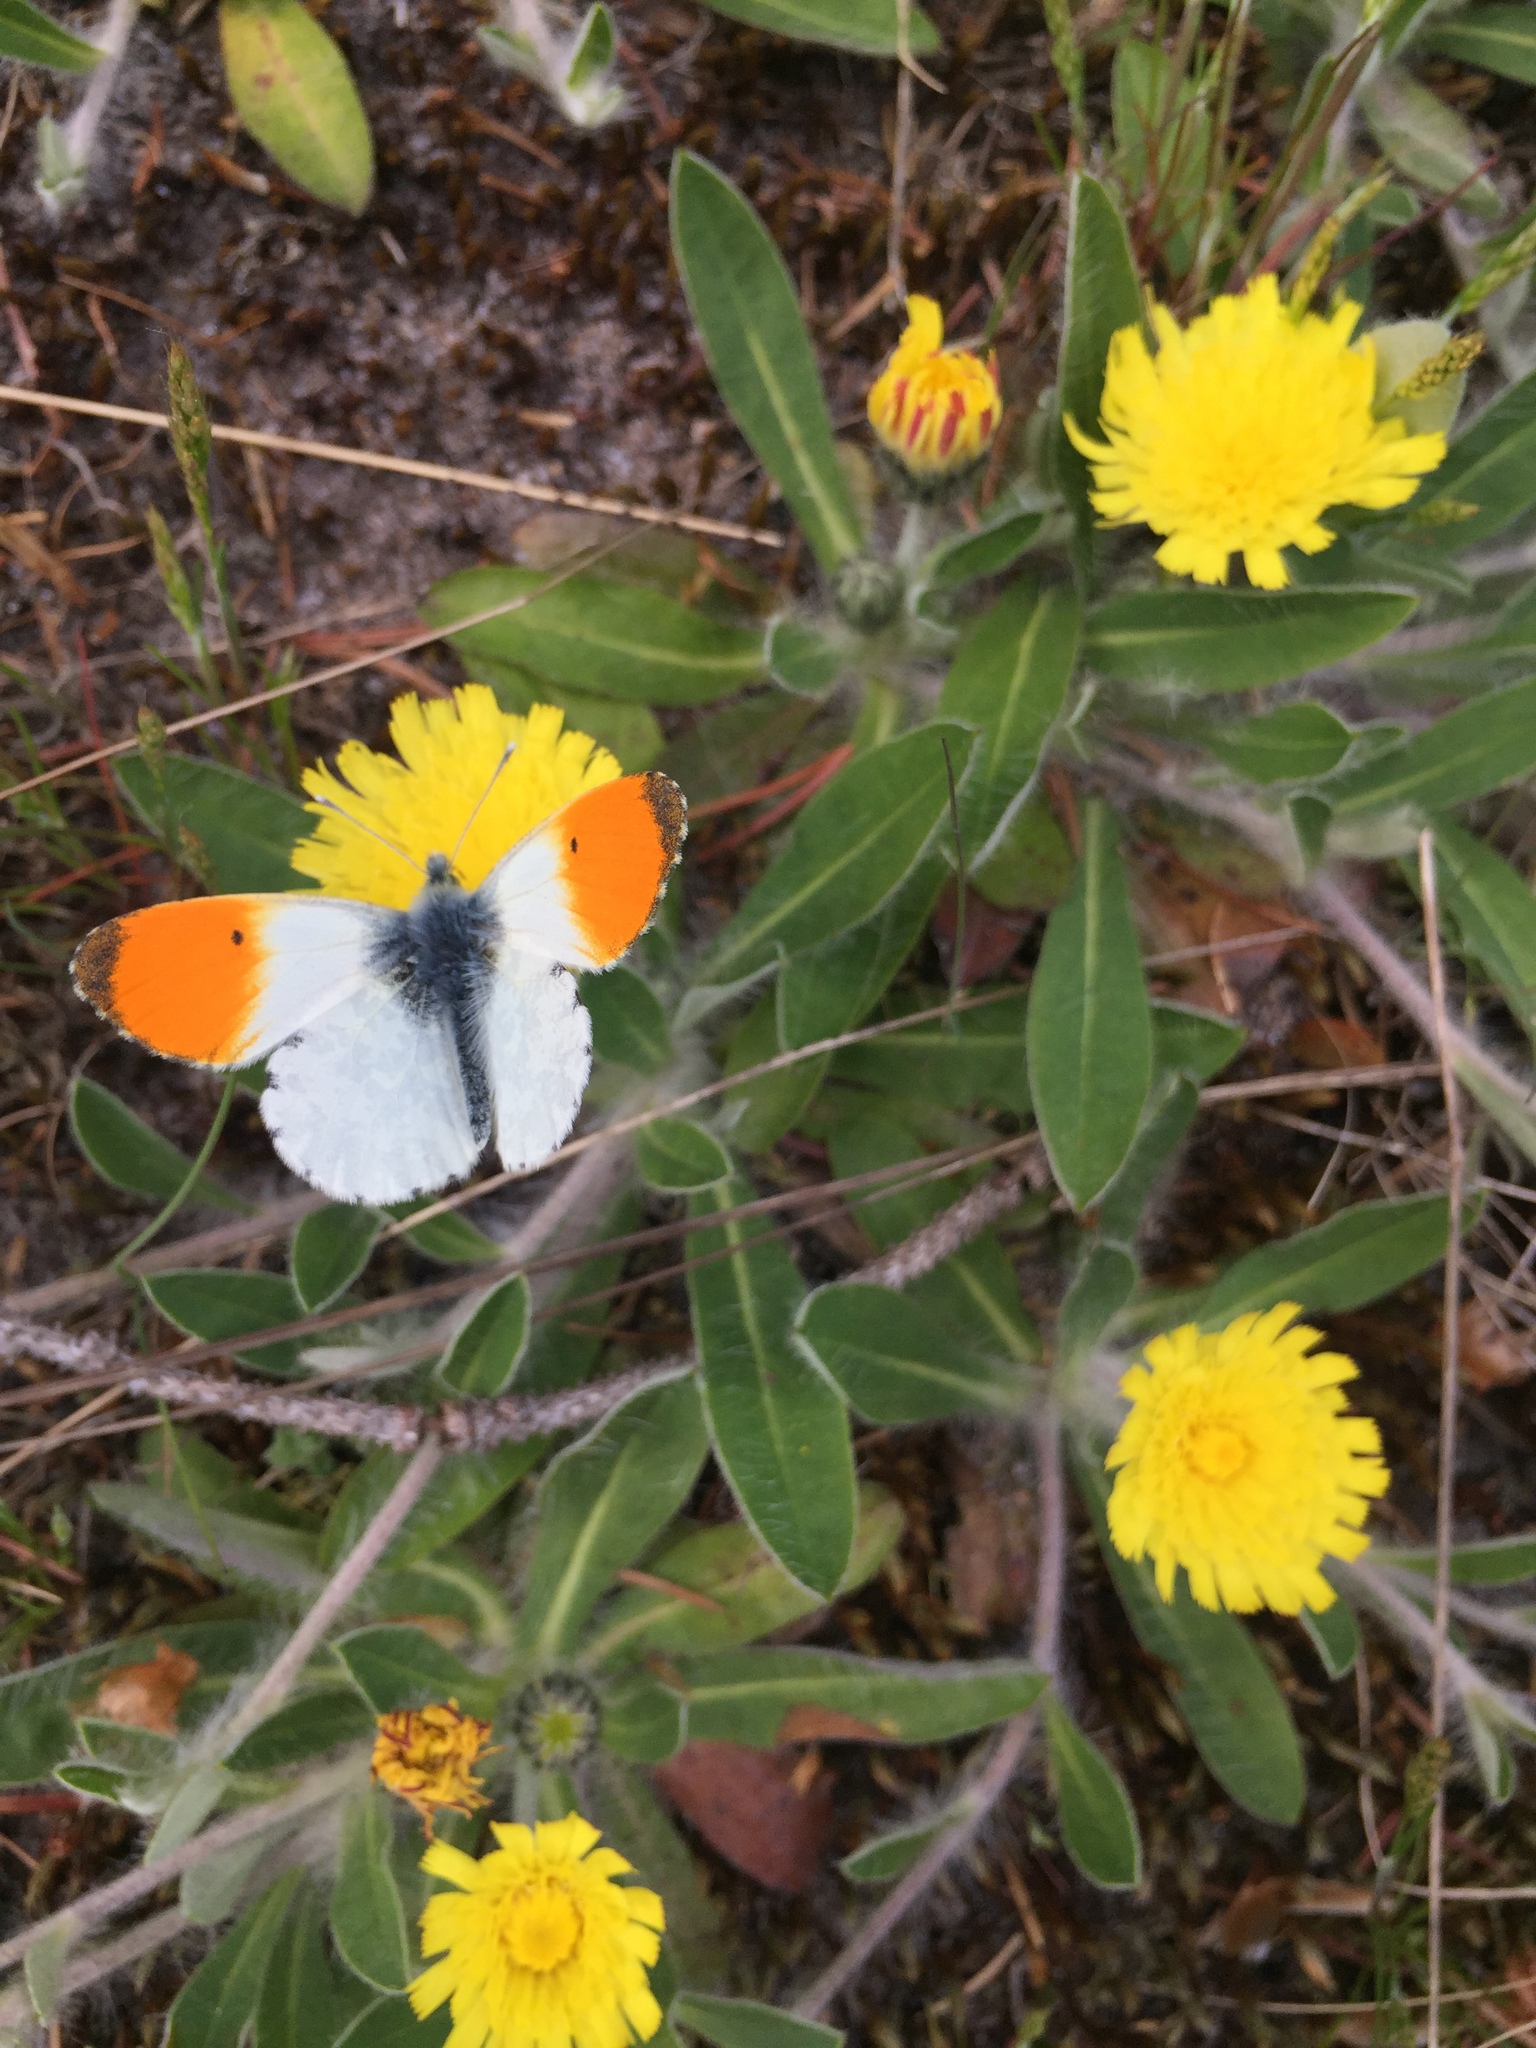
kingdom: Animalia
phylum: Arthropoda
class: Insecta
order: Lepidoptera
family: Pieridae
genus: Anthocharis
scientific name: Anthocharis cardamines
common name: Orange-tip
